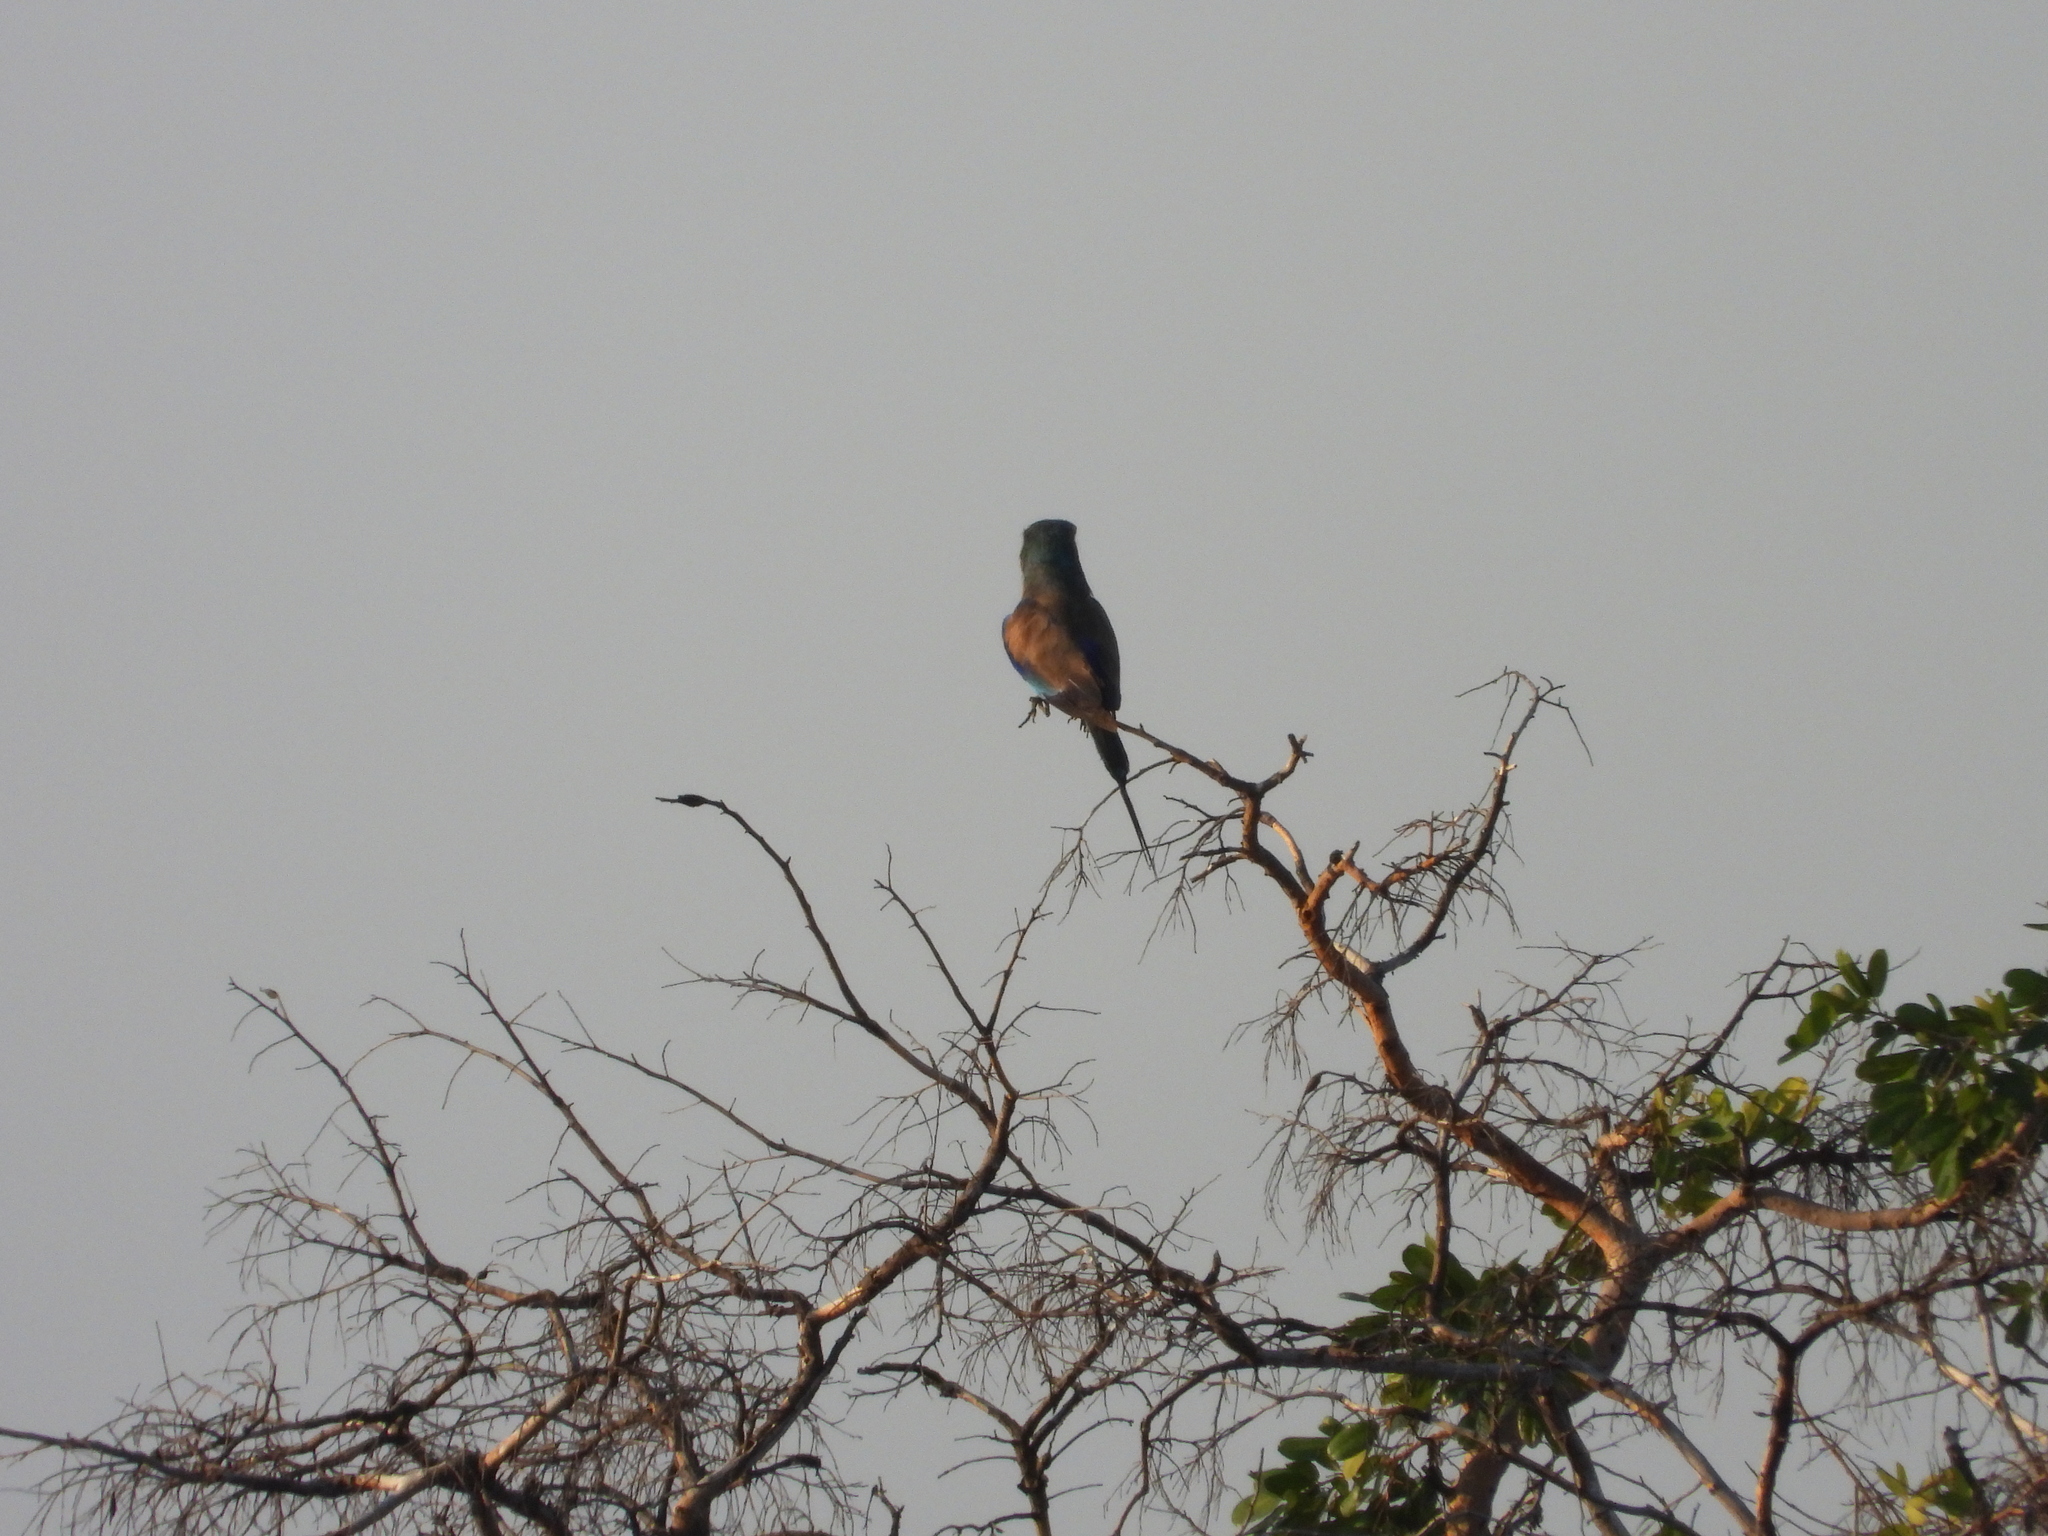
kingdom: Animalia
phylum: Chordata
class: Aves
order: Coraciiformes
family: Coraciidae
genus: Coracias
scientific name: Coracias caudatus
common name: Lilac-breasted roller
